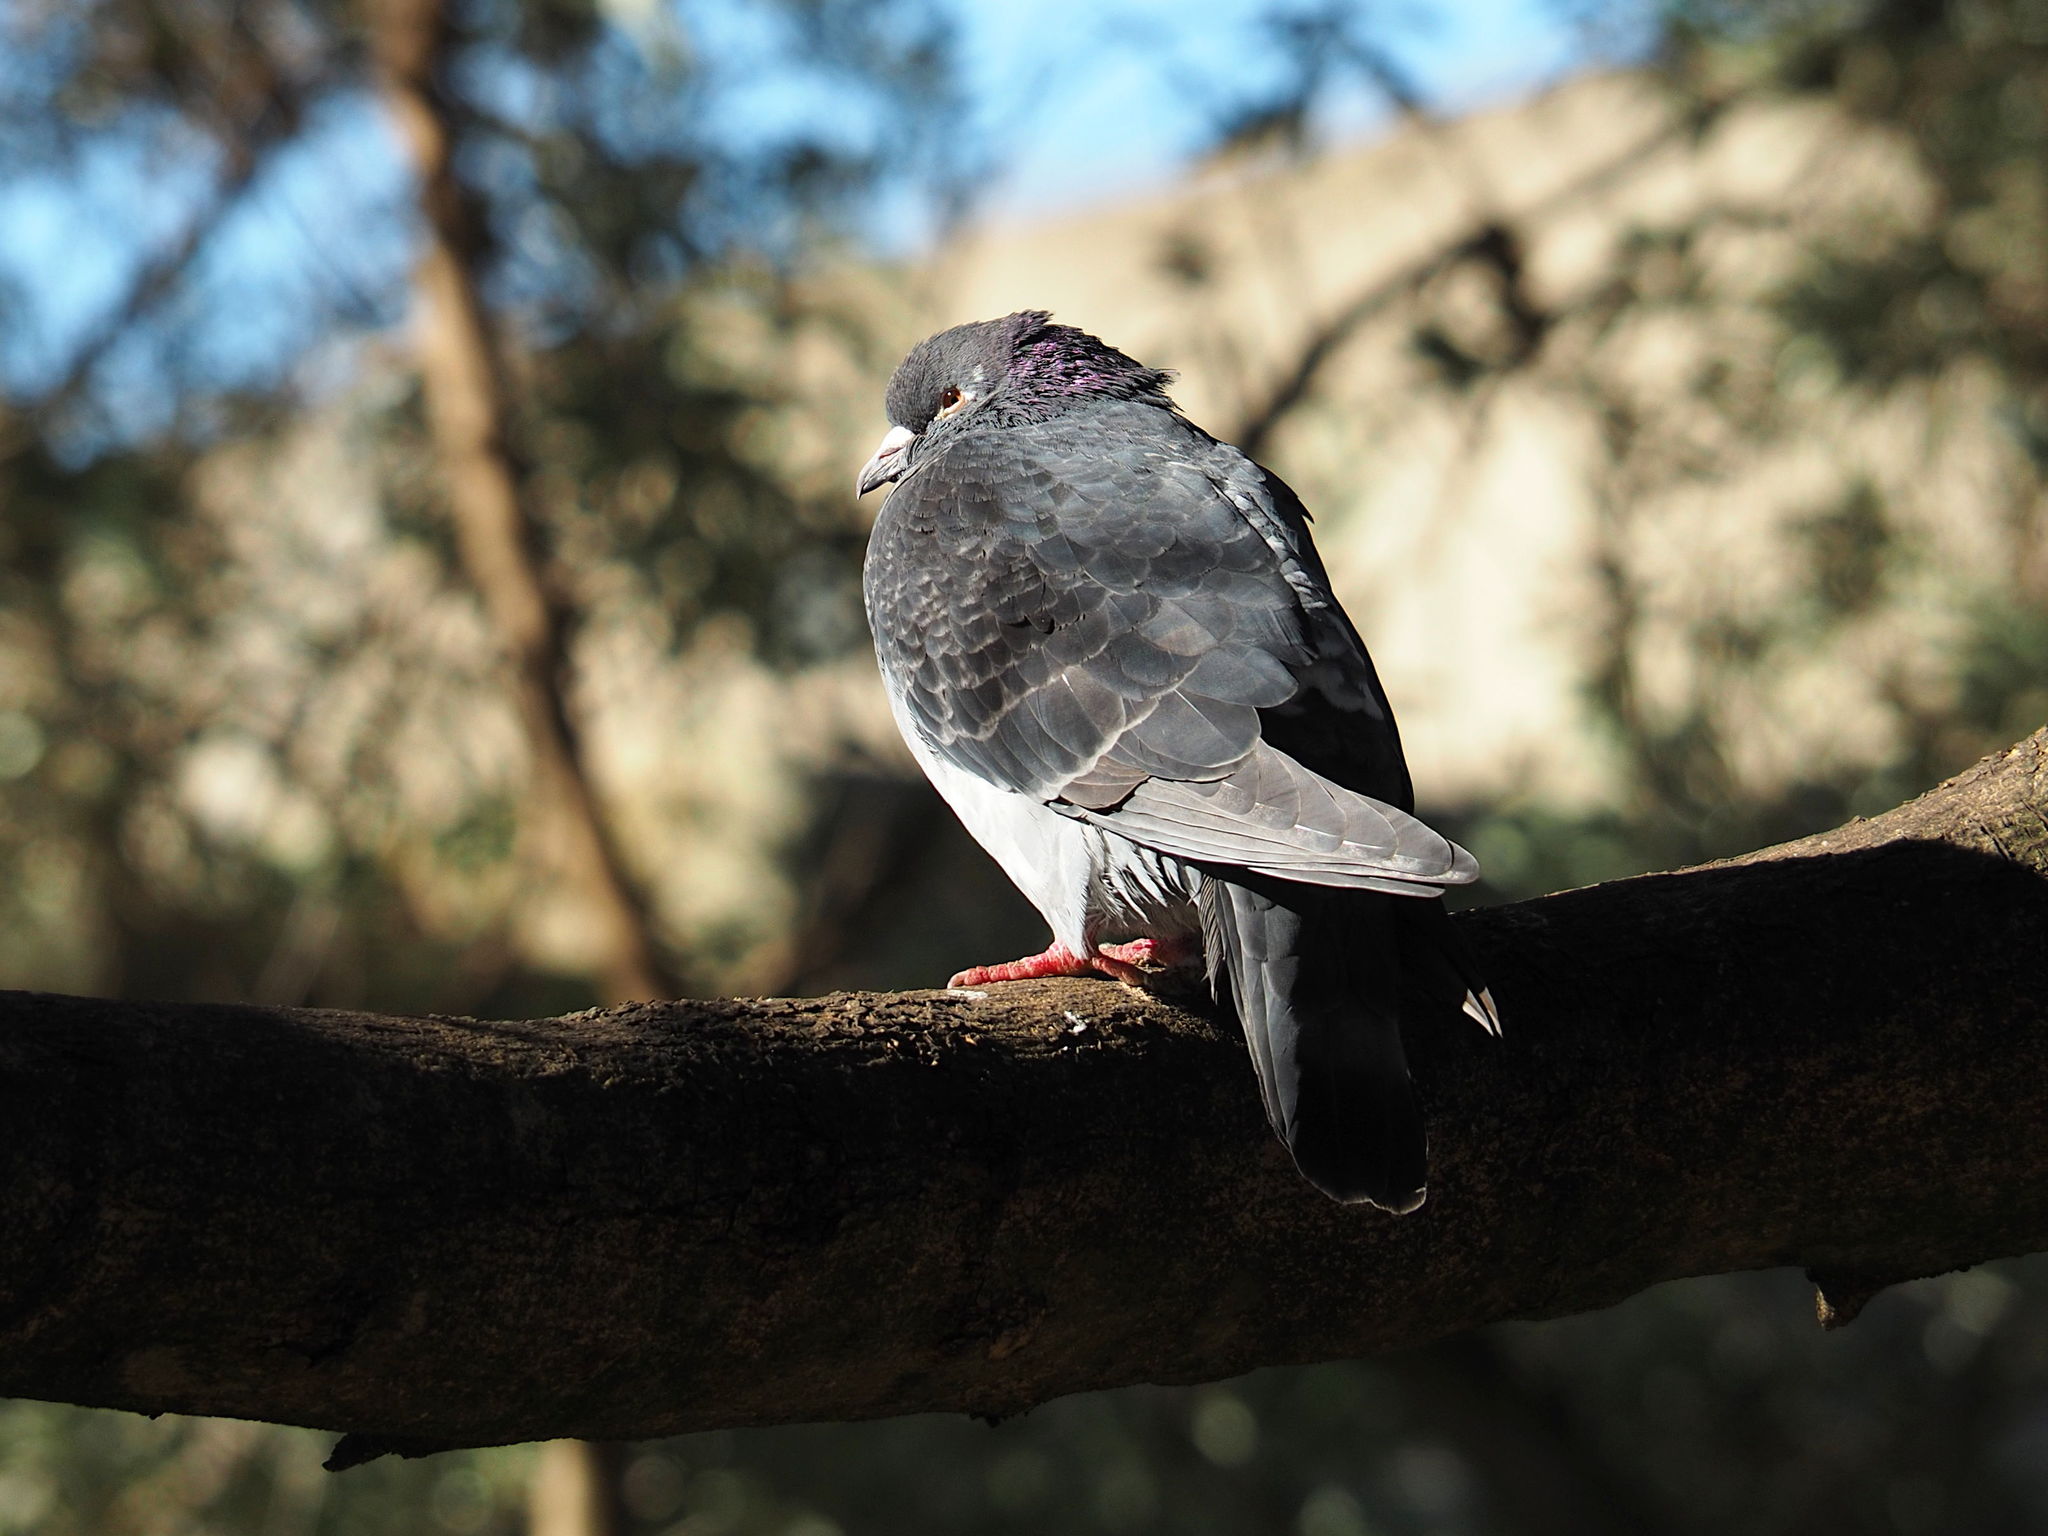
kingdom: Animalia
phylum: Chordata
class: Aves
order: Columbiformes
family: Columbidae
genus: Columba
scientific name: Columba livia
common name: Rock pigeon
